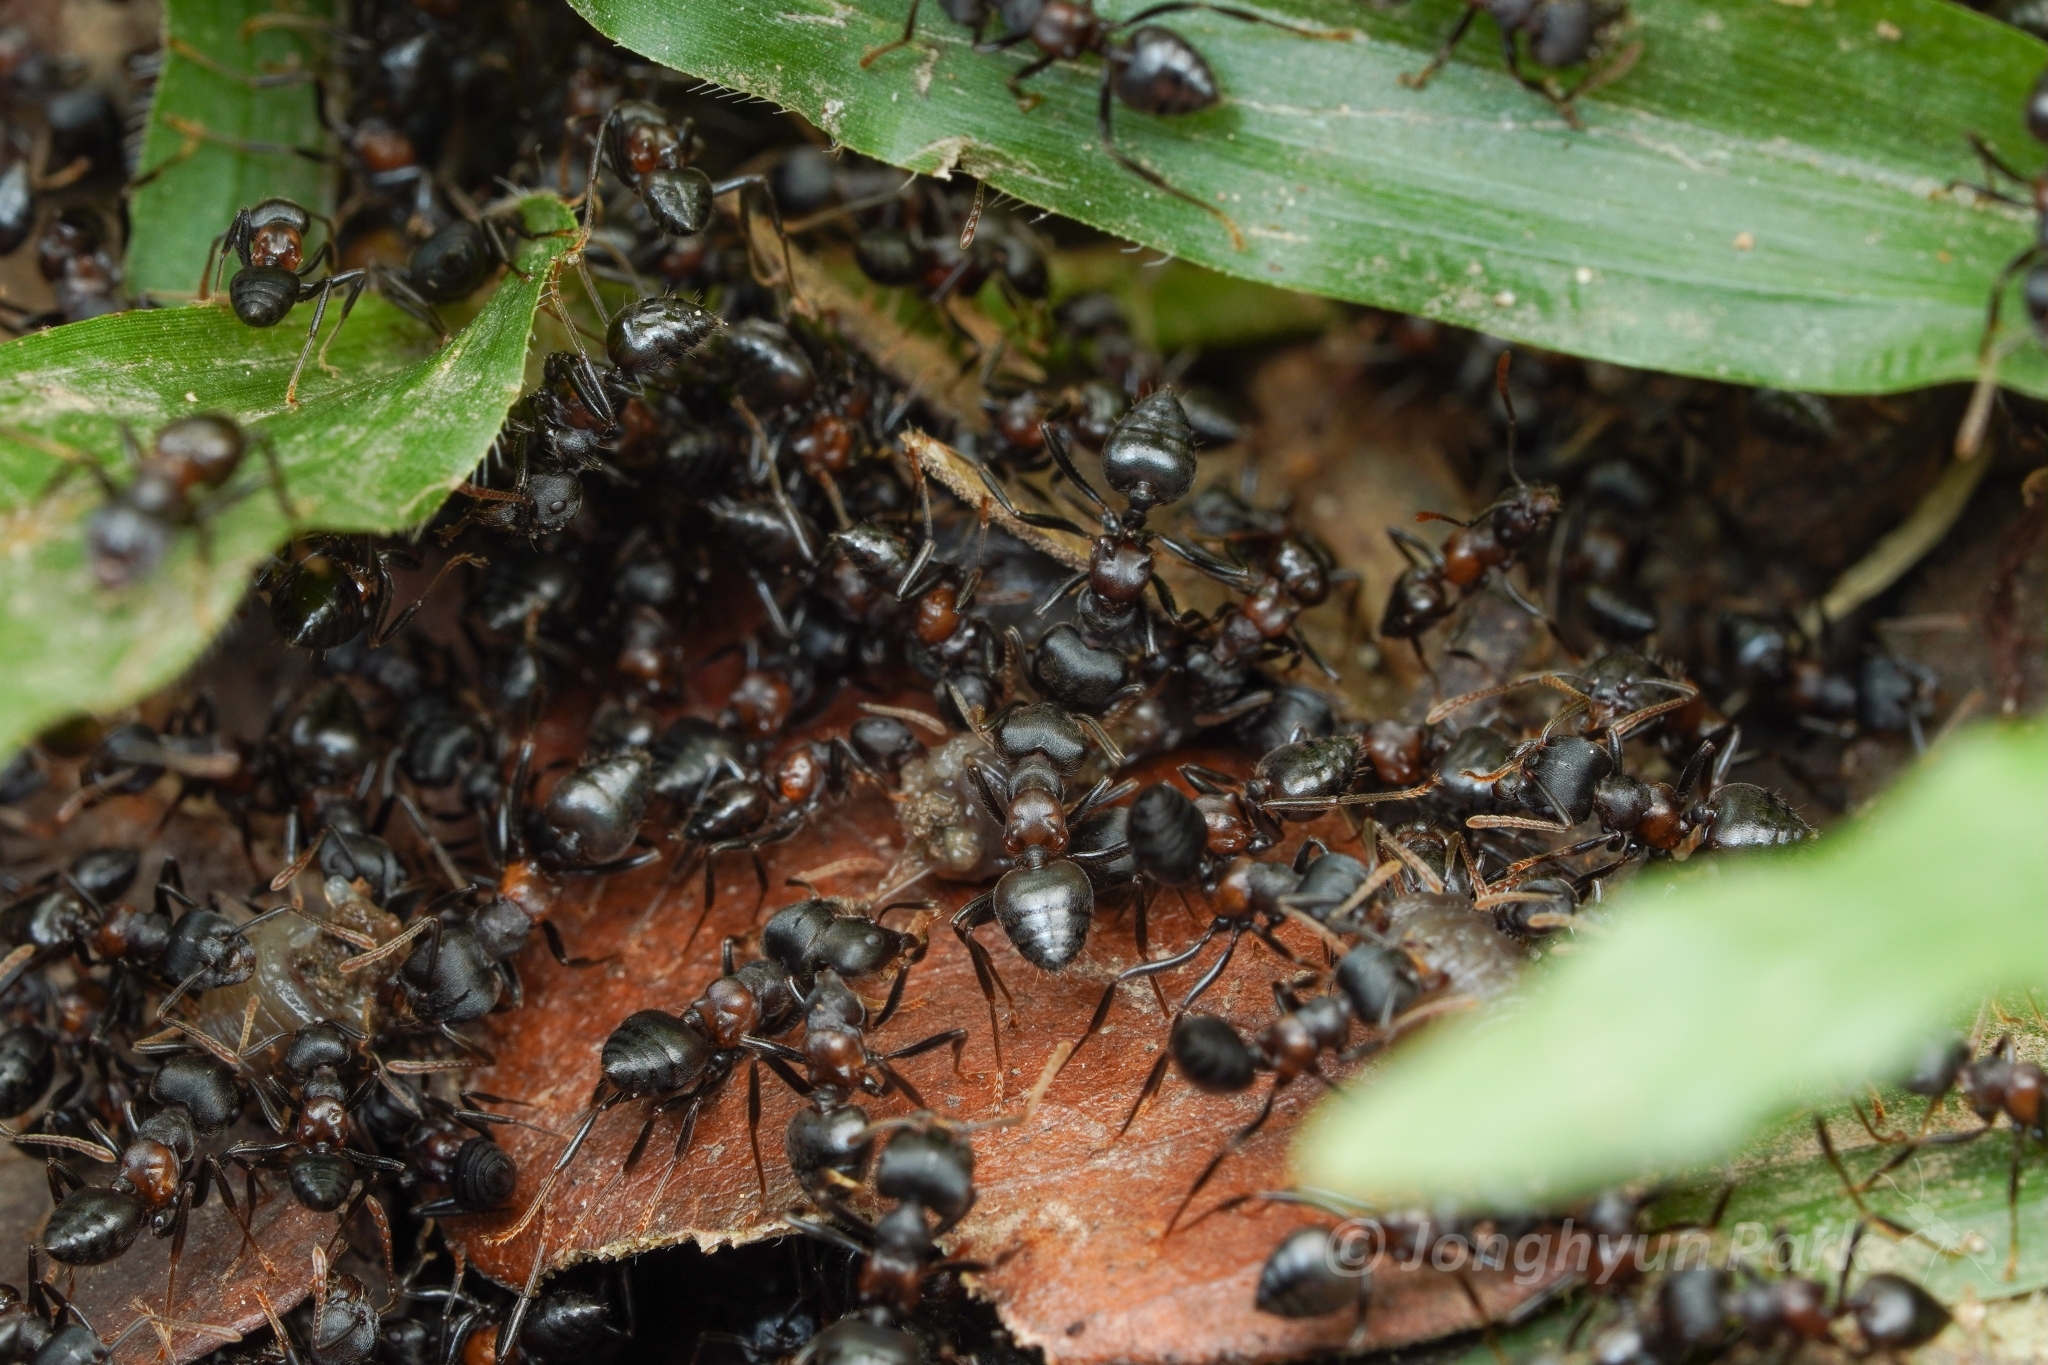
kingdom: Animalia
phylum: Arthropoda
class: Insecta
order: Hymenoptera
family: Formicidae
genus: Crematogaster
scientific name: Crematogaster aurita
